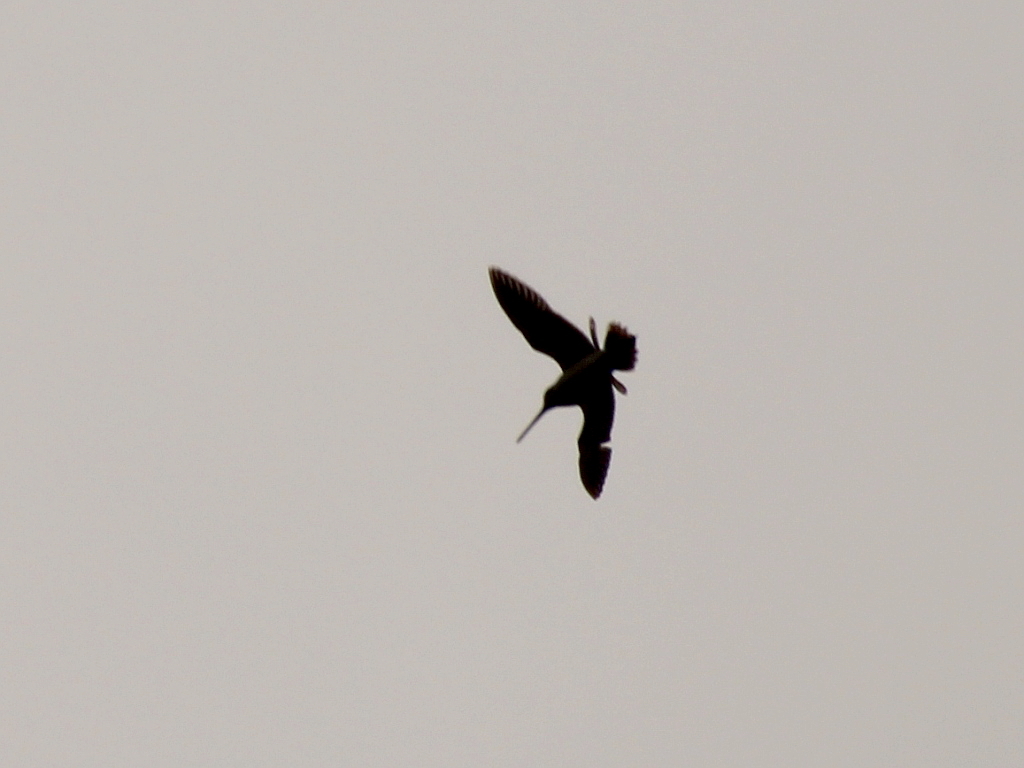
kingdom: Animalia
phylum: Chordata
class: Aves
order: Charadriiformes
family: Scolopacidae
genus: Gallinago
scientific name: Gallinago gallinago
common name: Common snipe
